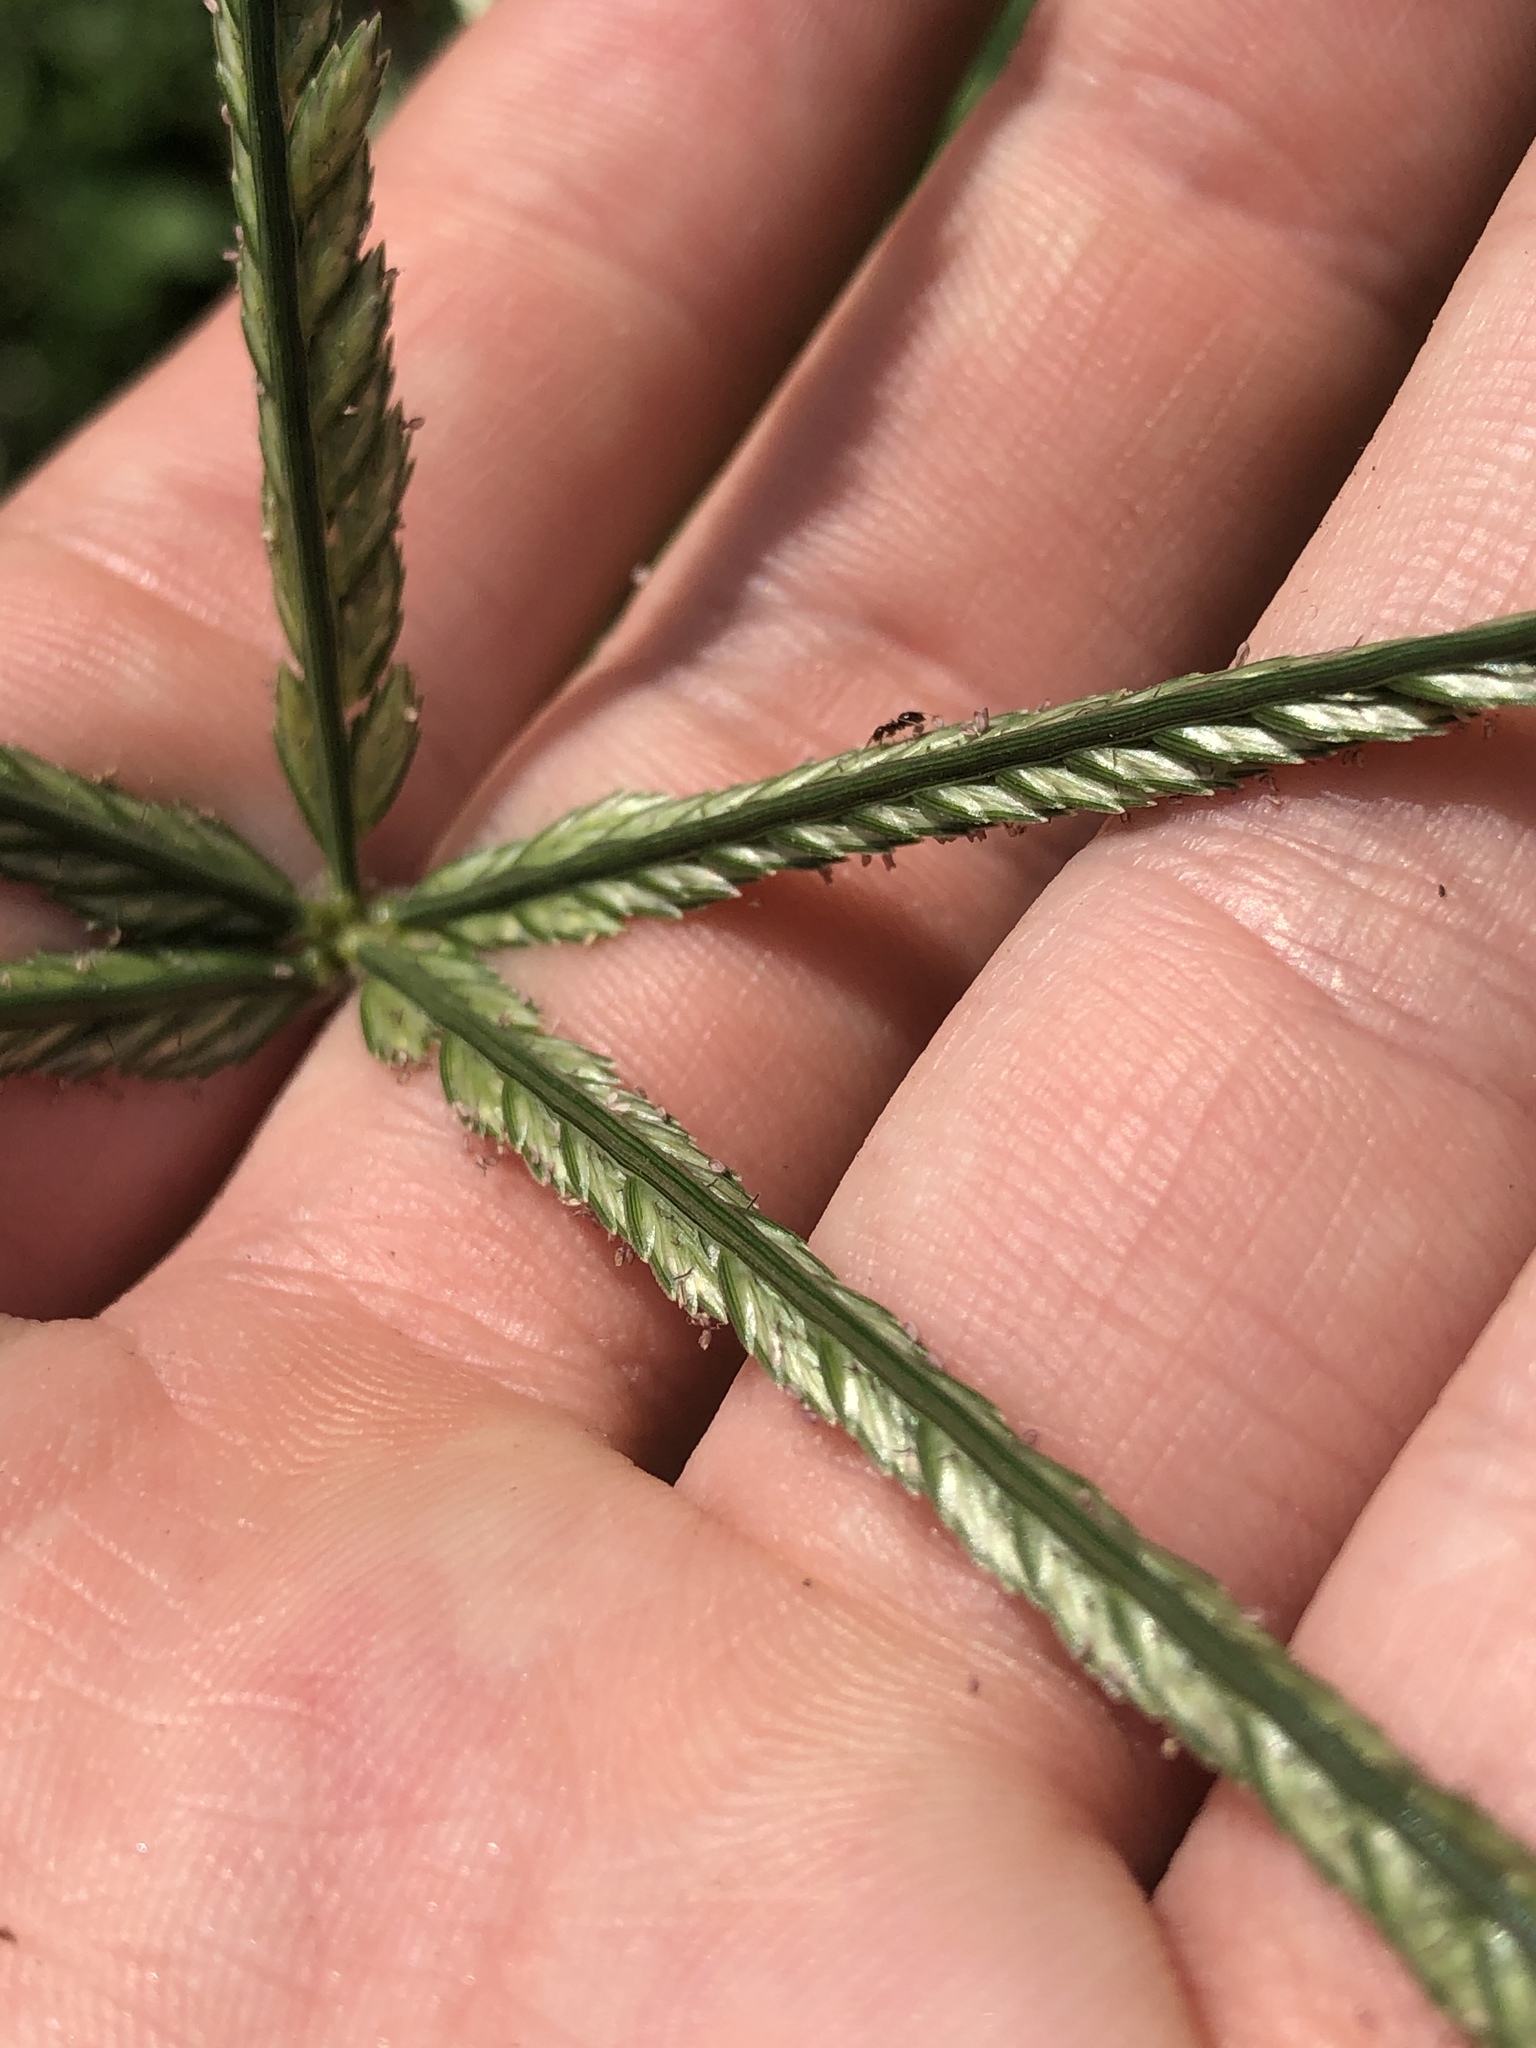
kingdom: Plantae
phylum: Tracheophyta
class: Liliopsida
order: Poales
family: Poaceae
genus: Eleusine
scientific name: Eleusine indica
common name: Yard-grass
